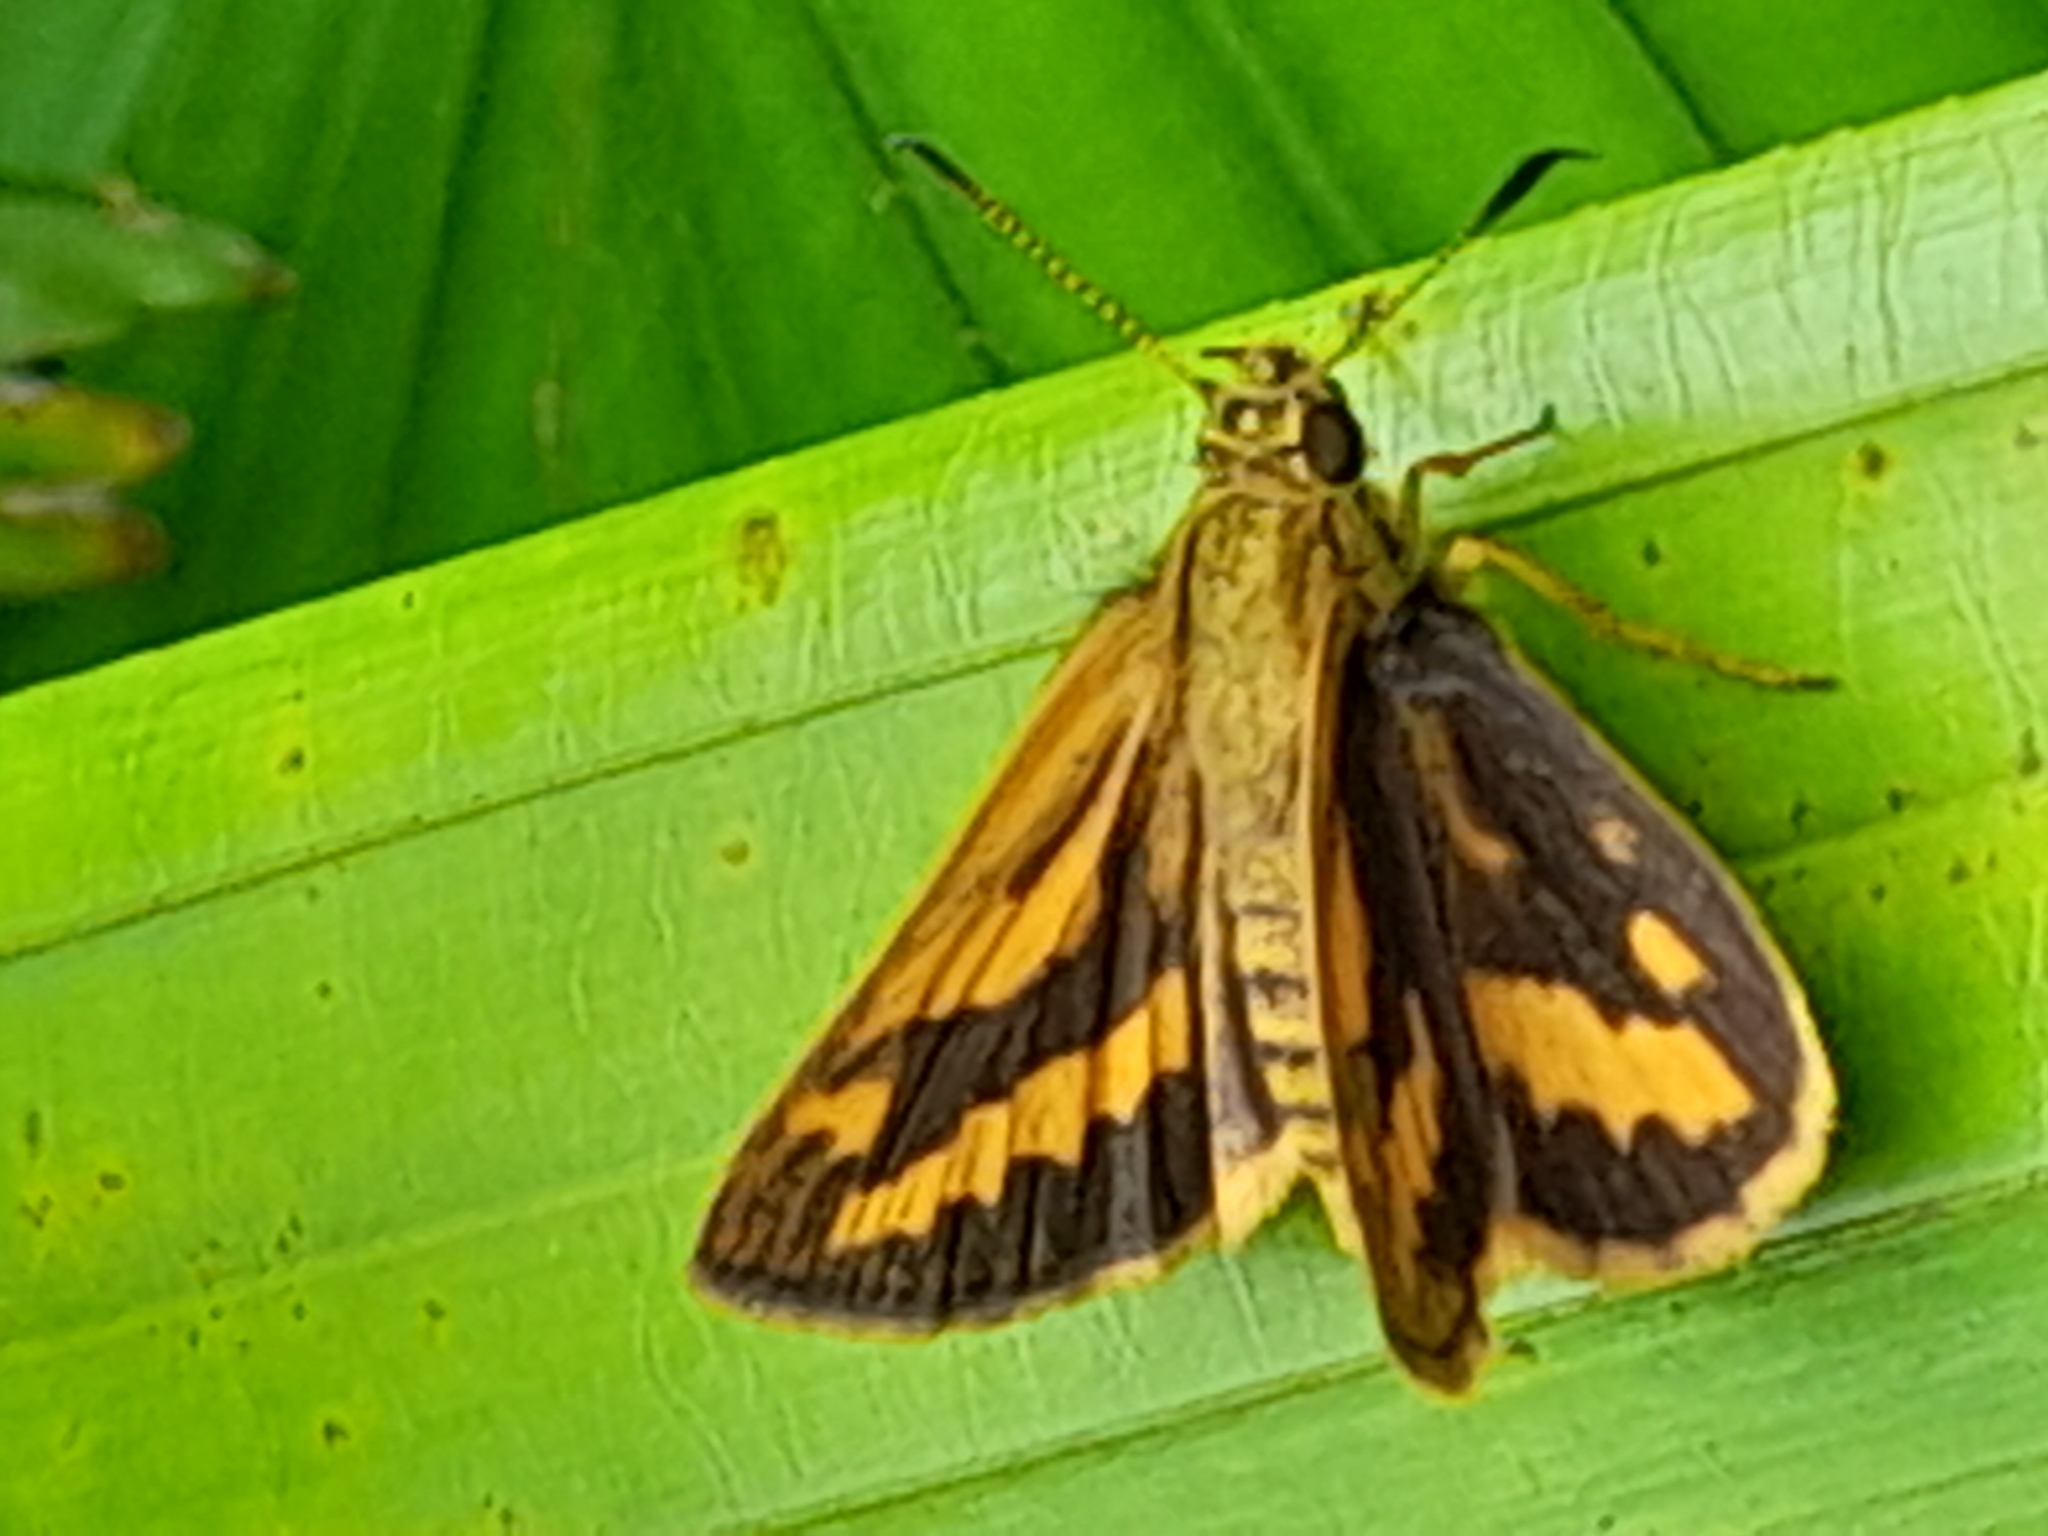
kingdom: Animalia
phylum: Arthropoda
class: Insecta
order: Lepidoptera
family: Hesperiidae
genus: Suniana
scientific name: Suniana sunias
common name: Wide-brand grass-dart
